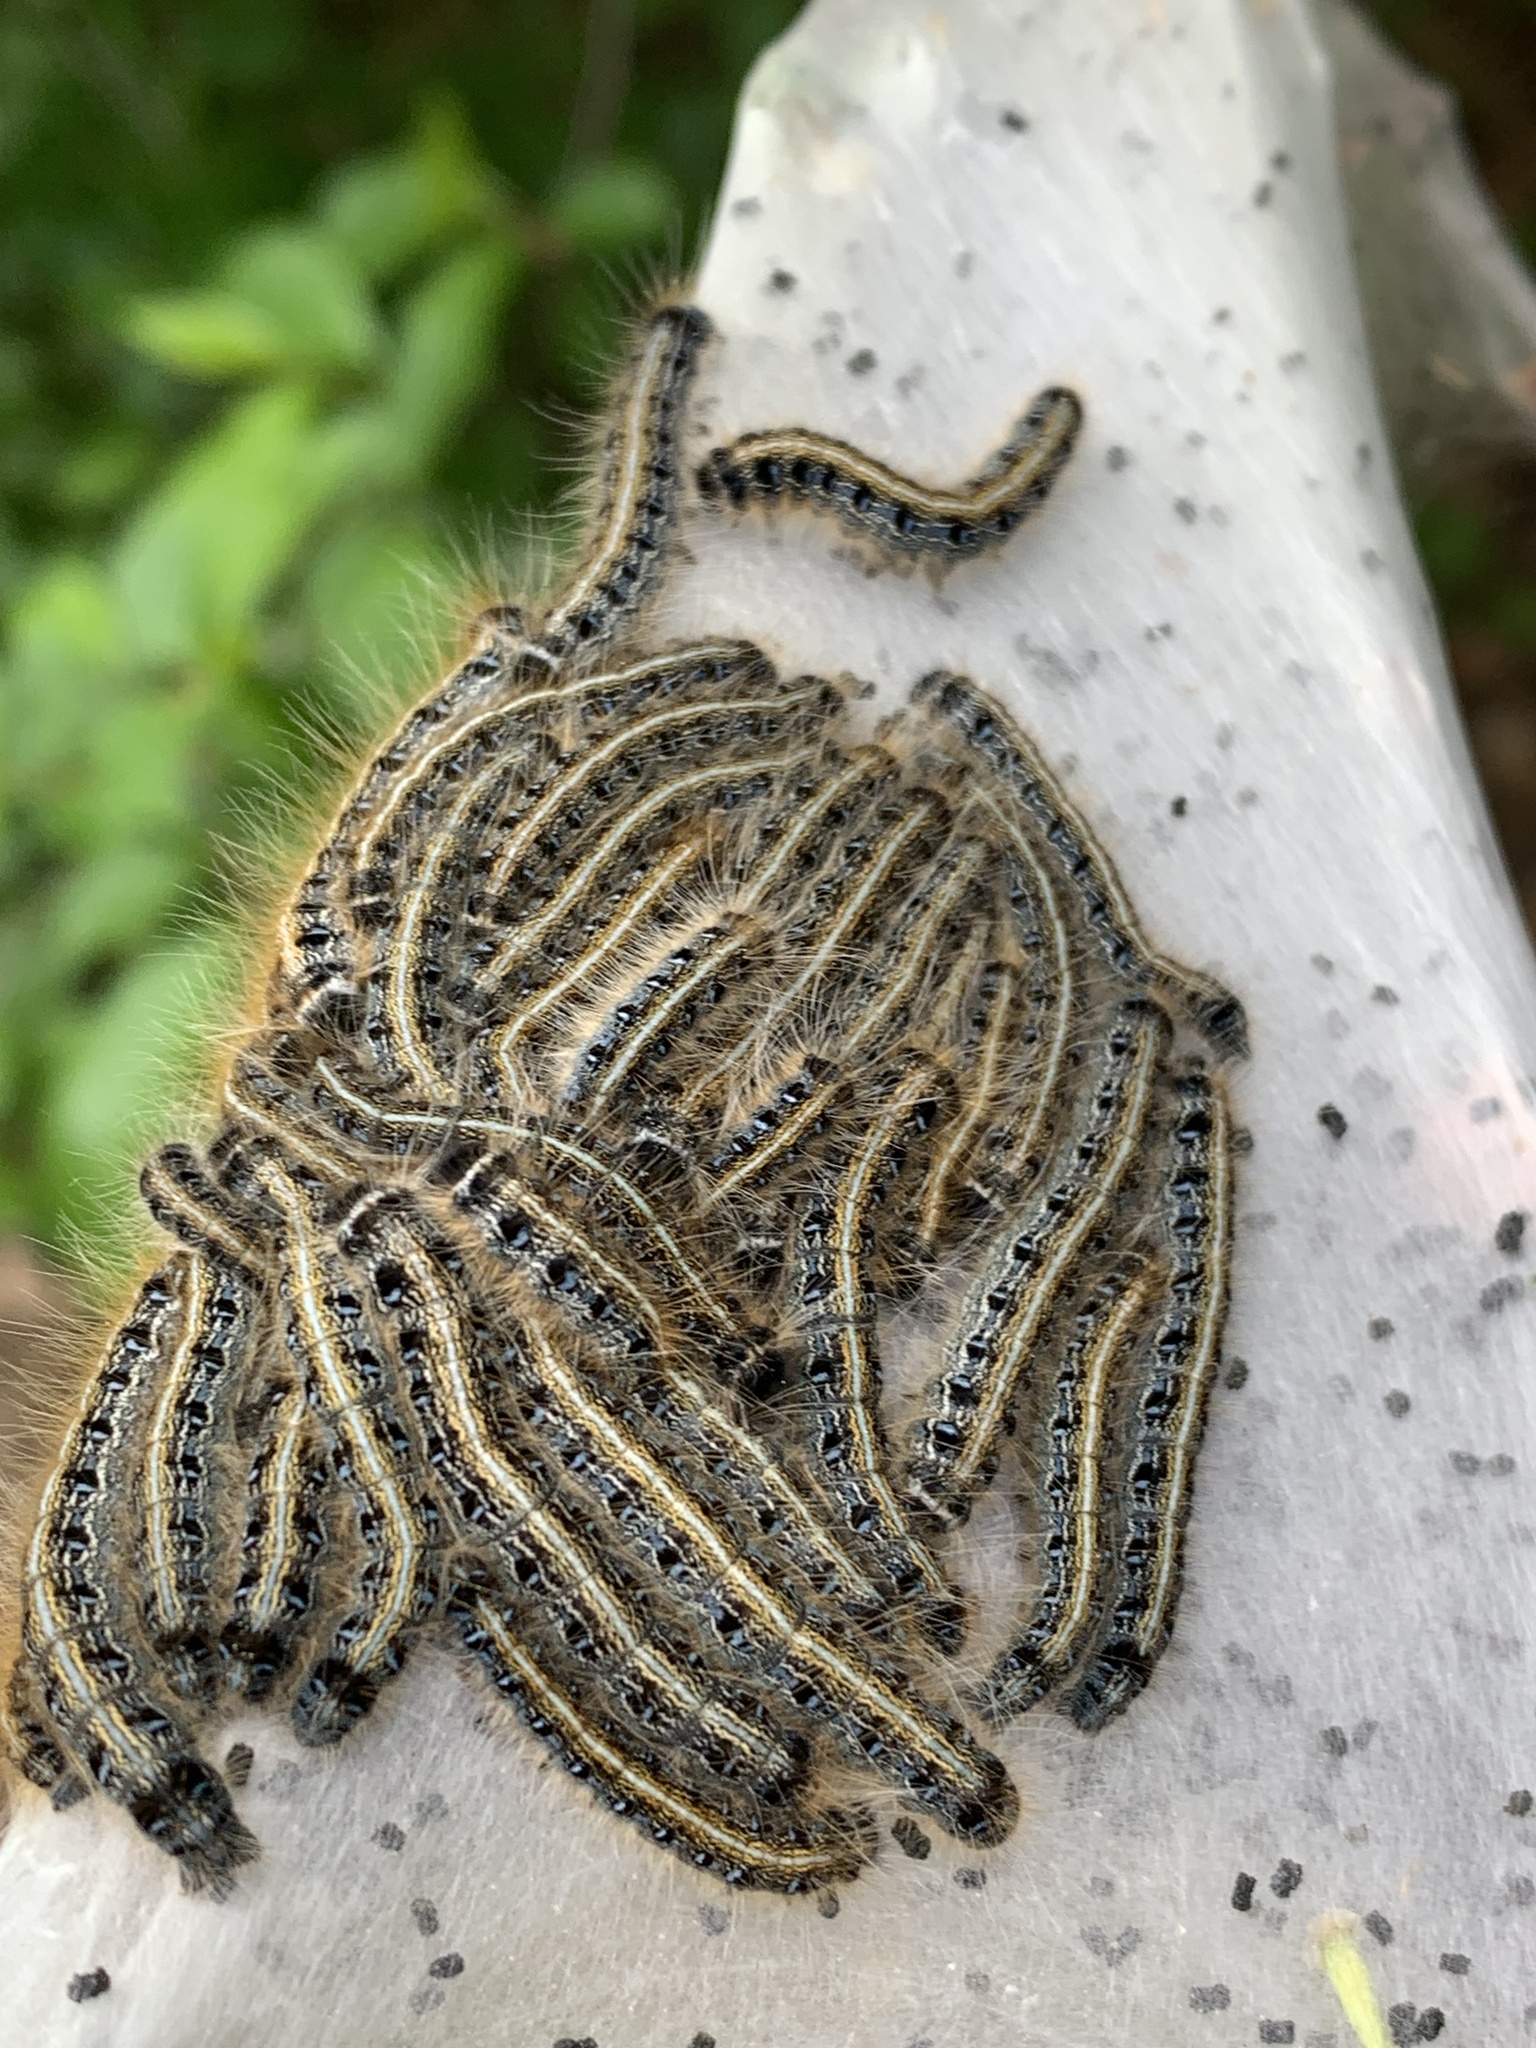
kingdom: Animalia
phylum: Arthropoda
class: Insecta
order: Lepidoptera
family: Lasiocampidae
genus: Malacosoma
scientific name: Malacosoma americana
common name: Eastern tent caterpillar moth
